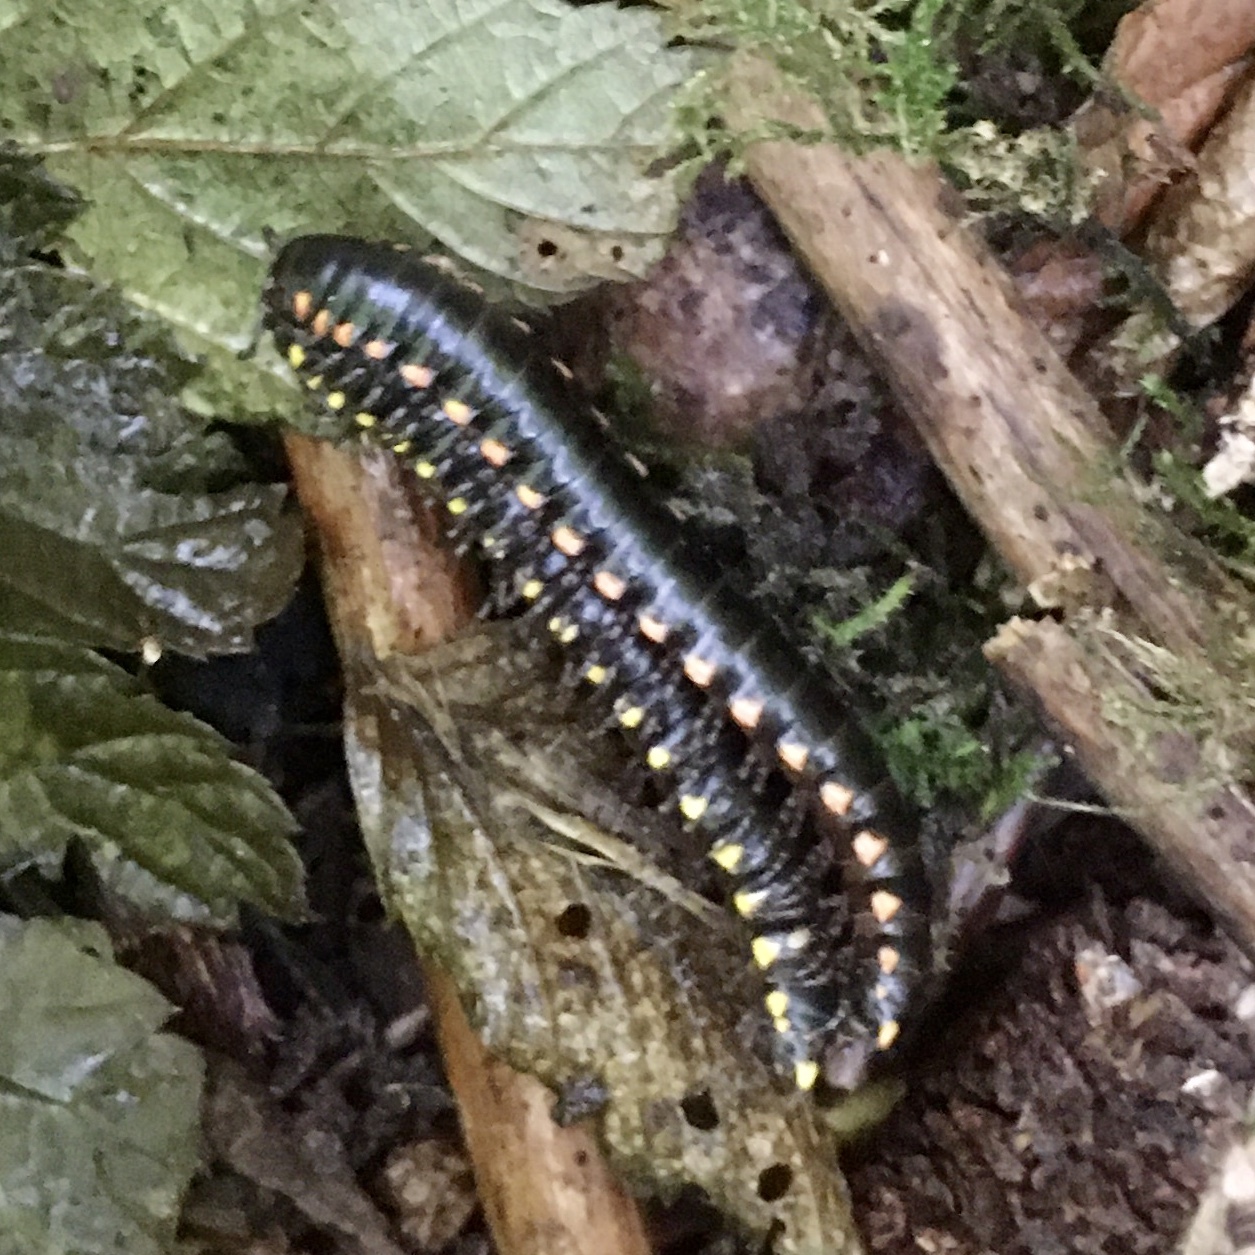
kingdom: Animalia
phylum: Arthropoda
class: Diplopoda
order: Polydesmida
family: Xystodesmidae
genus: Harpaphe
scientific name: Harpaphe haydeniana
